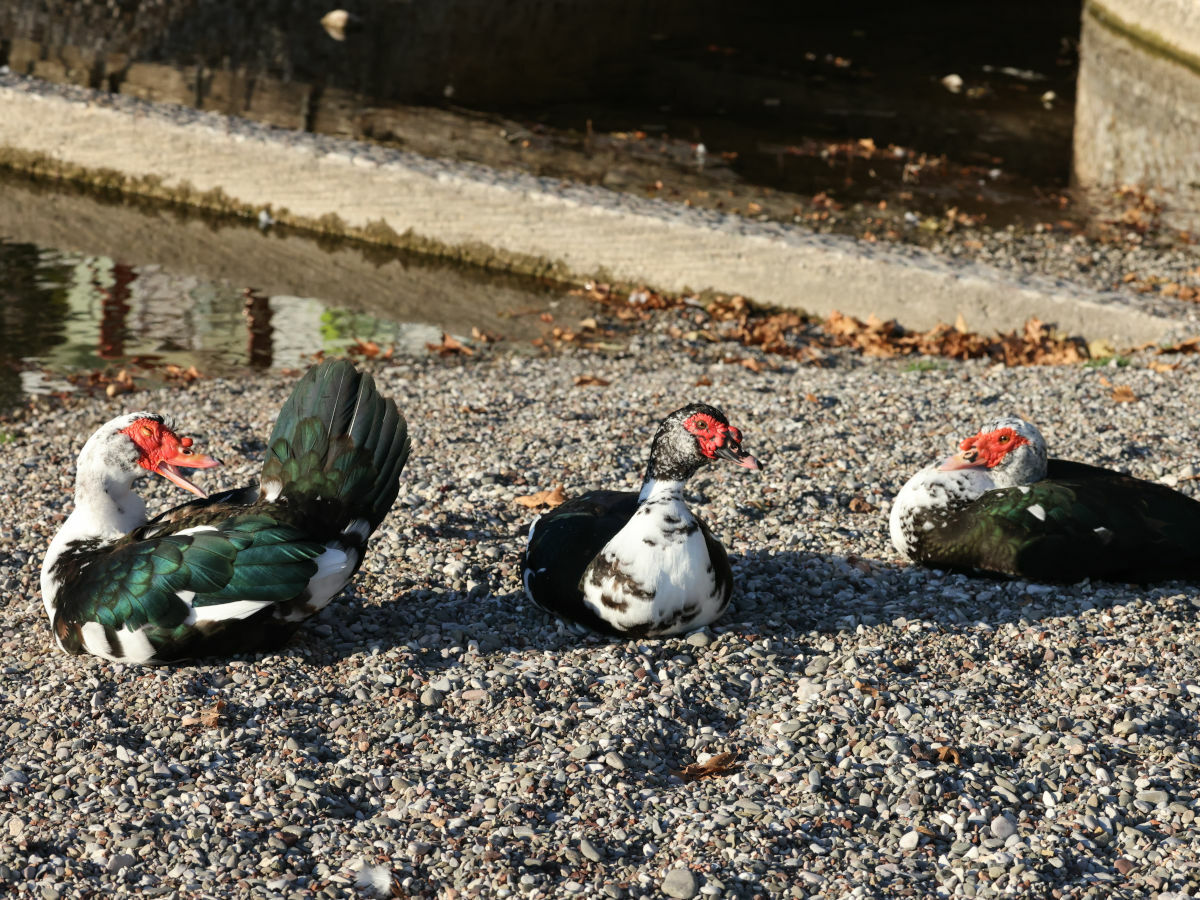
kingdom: Animalia
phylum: Chordata
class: Aves
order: Anseriformes
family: Anatidae
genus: Cairina
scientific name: Cairina moschata
